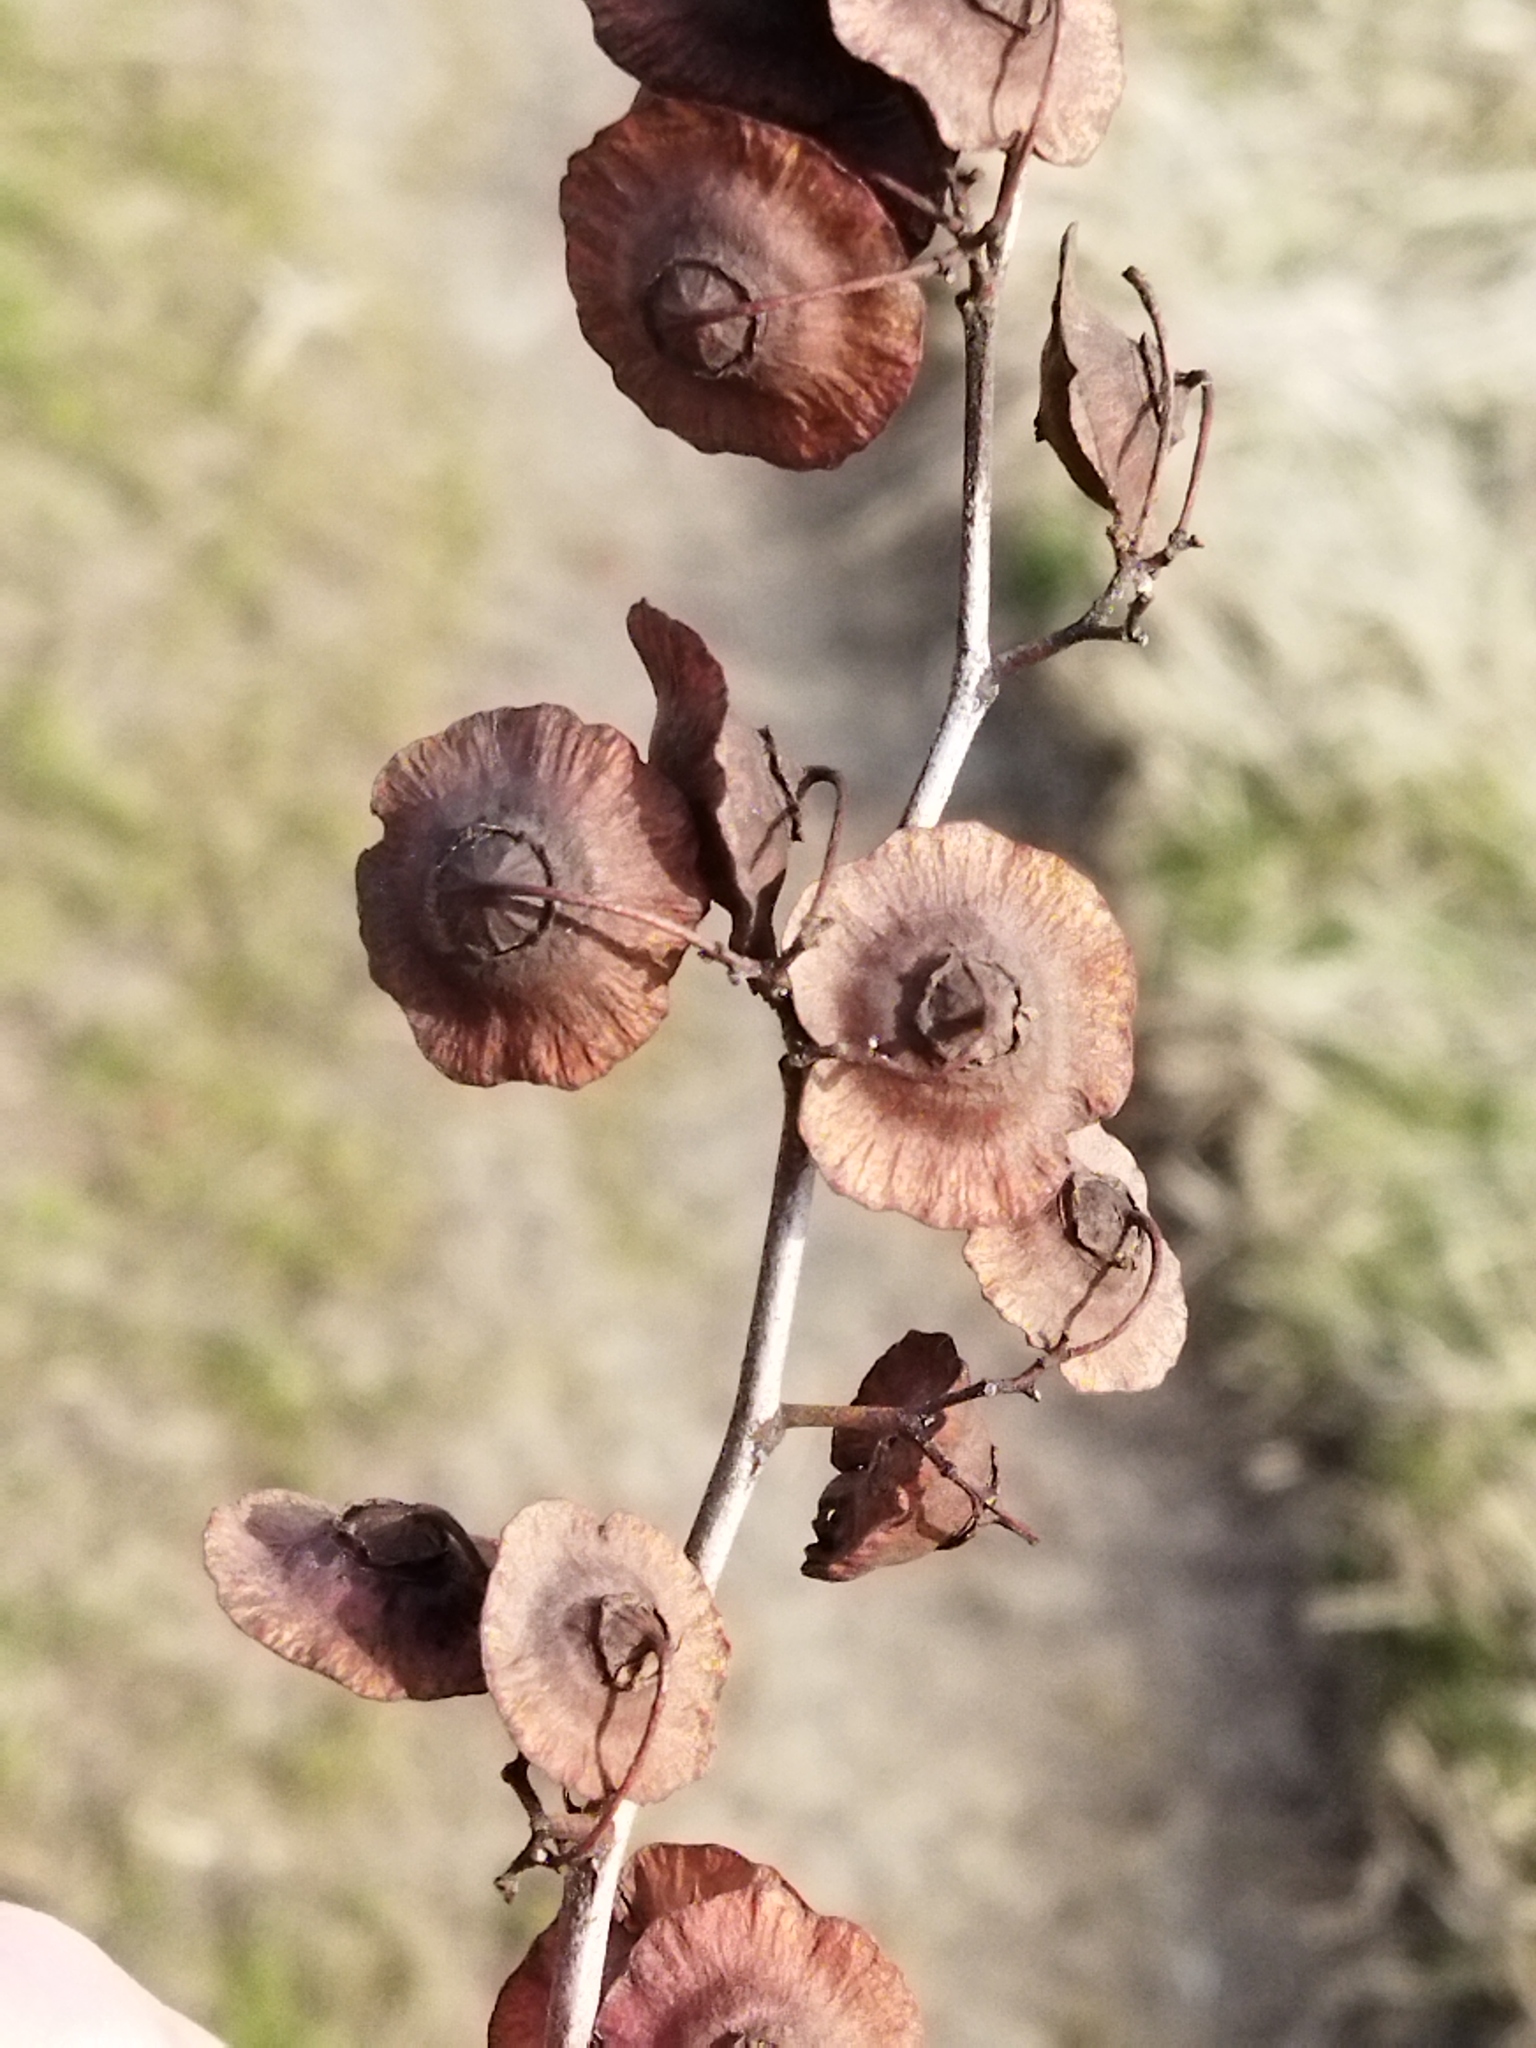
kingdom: Plantae
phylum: Tracheophyta
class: Magnoliopsida
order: Rosales
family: Rhamnaceae
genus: Paliurus
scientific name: Paliurus spina-christi
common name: Jeruselem thorn
